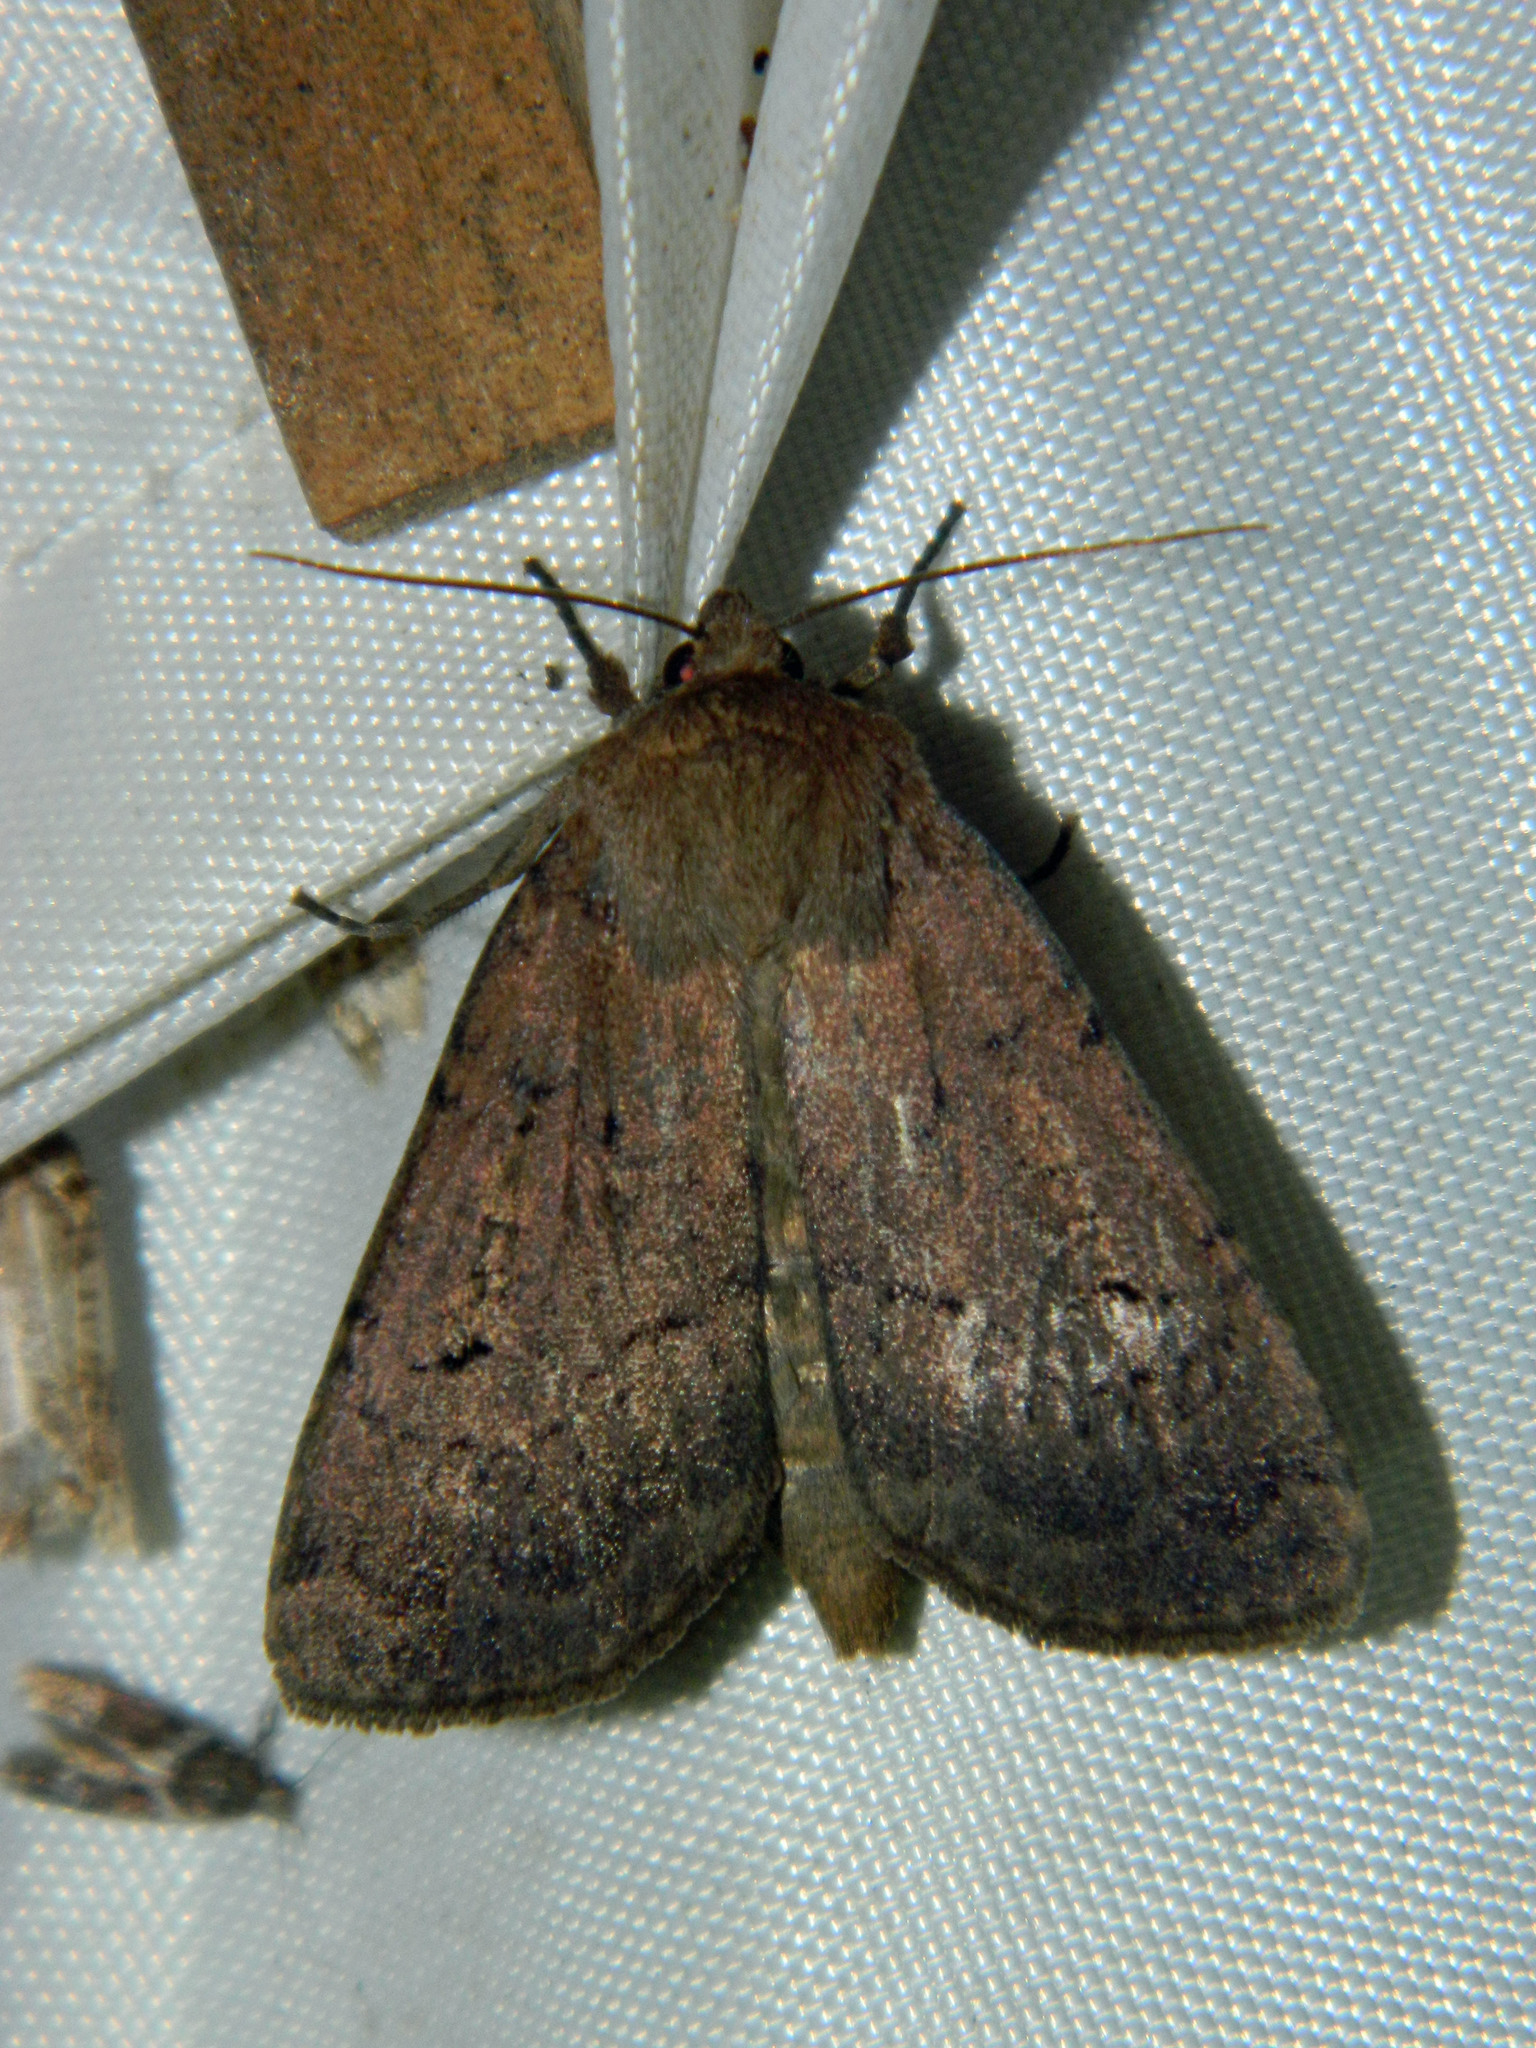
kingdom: Animalia
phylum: Arthropoda
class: Insecta
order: Lepidoptera
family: Noctuidae
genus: Graphiphora
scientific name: Graphiphora augur
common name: Double dart
